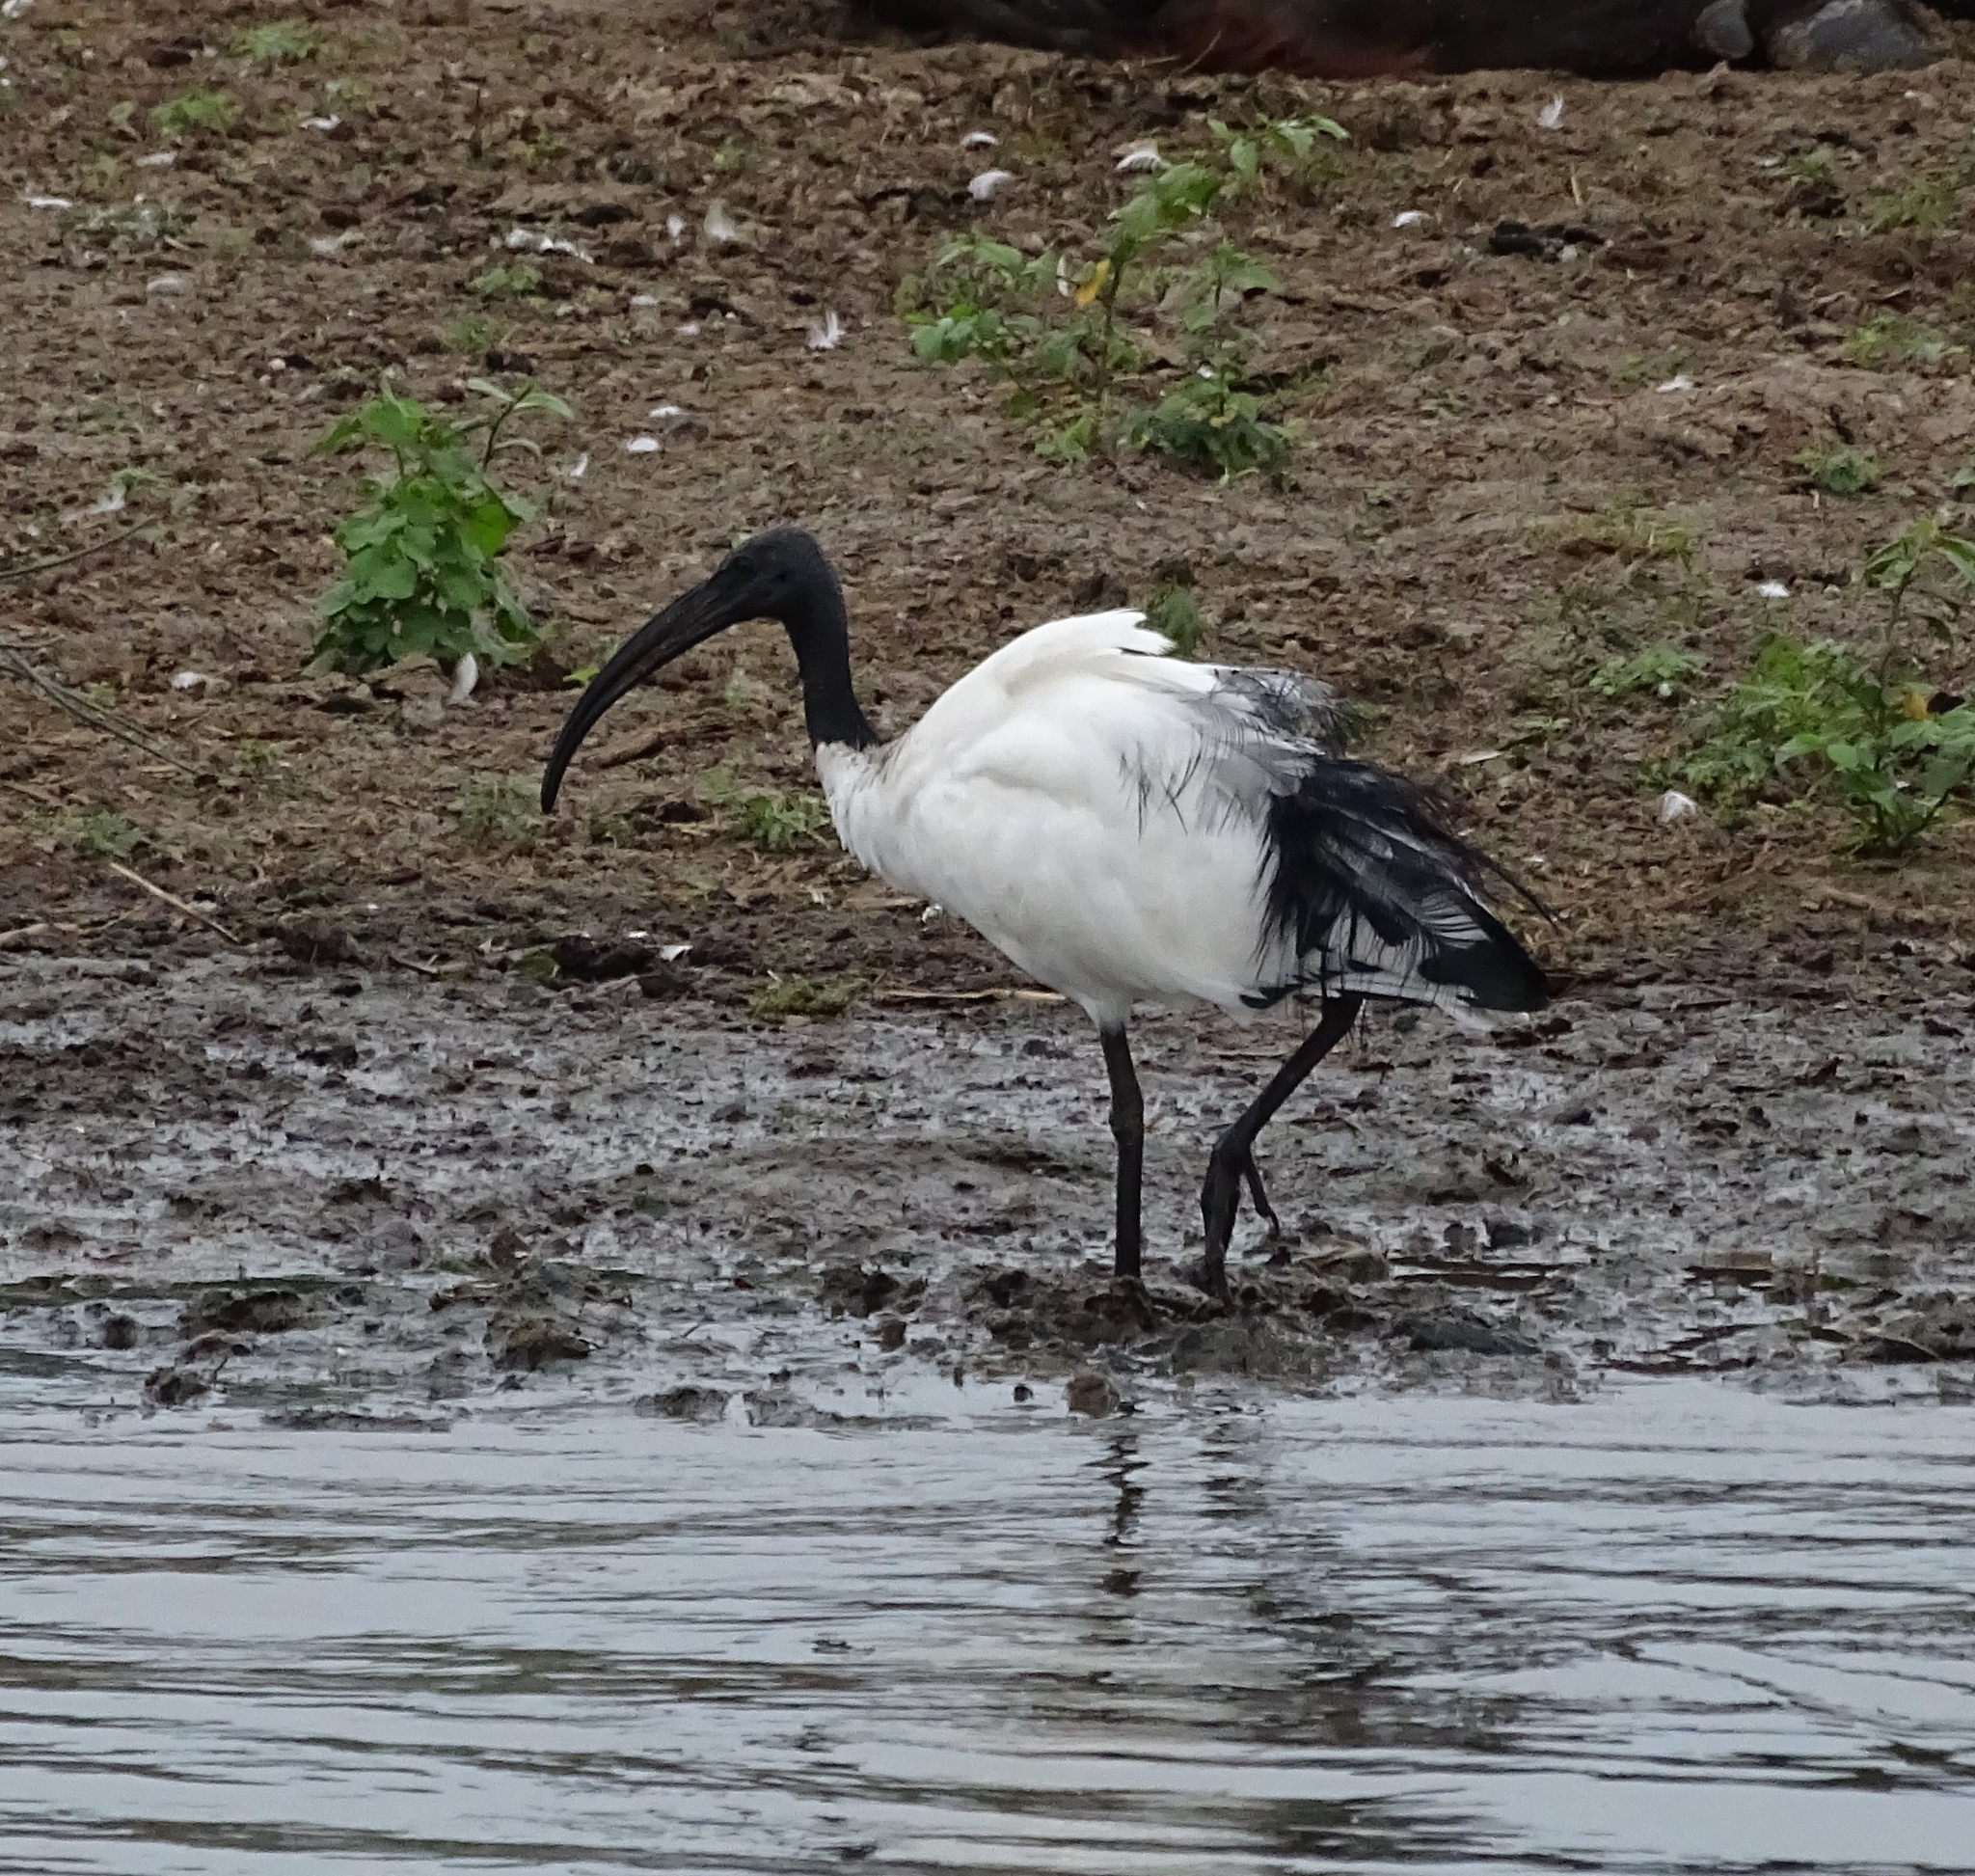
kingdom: Animalia
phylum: Chordata
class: Aves
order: Pelecaniformes
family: Threskiornithidae
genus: Threskiornis
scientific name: Threskiornis aethiopicus
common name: Sacred ibis
